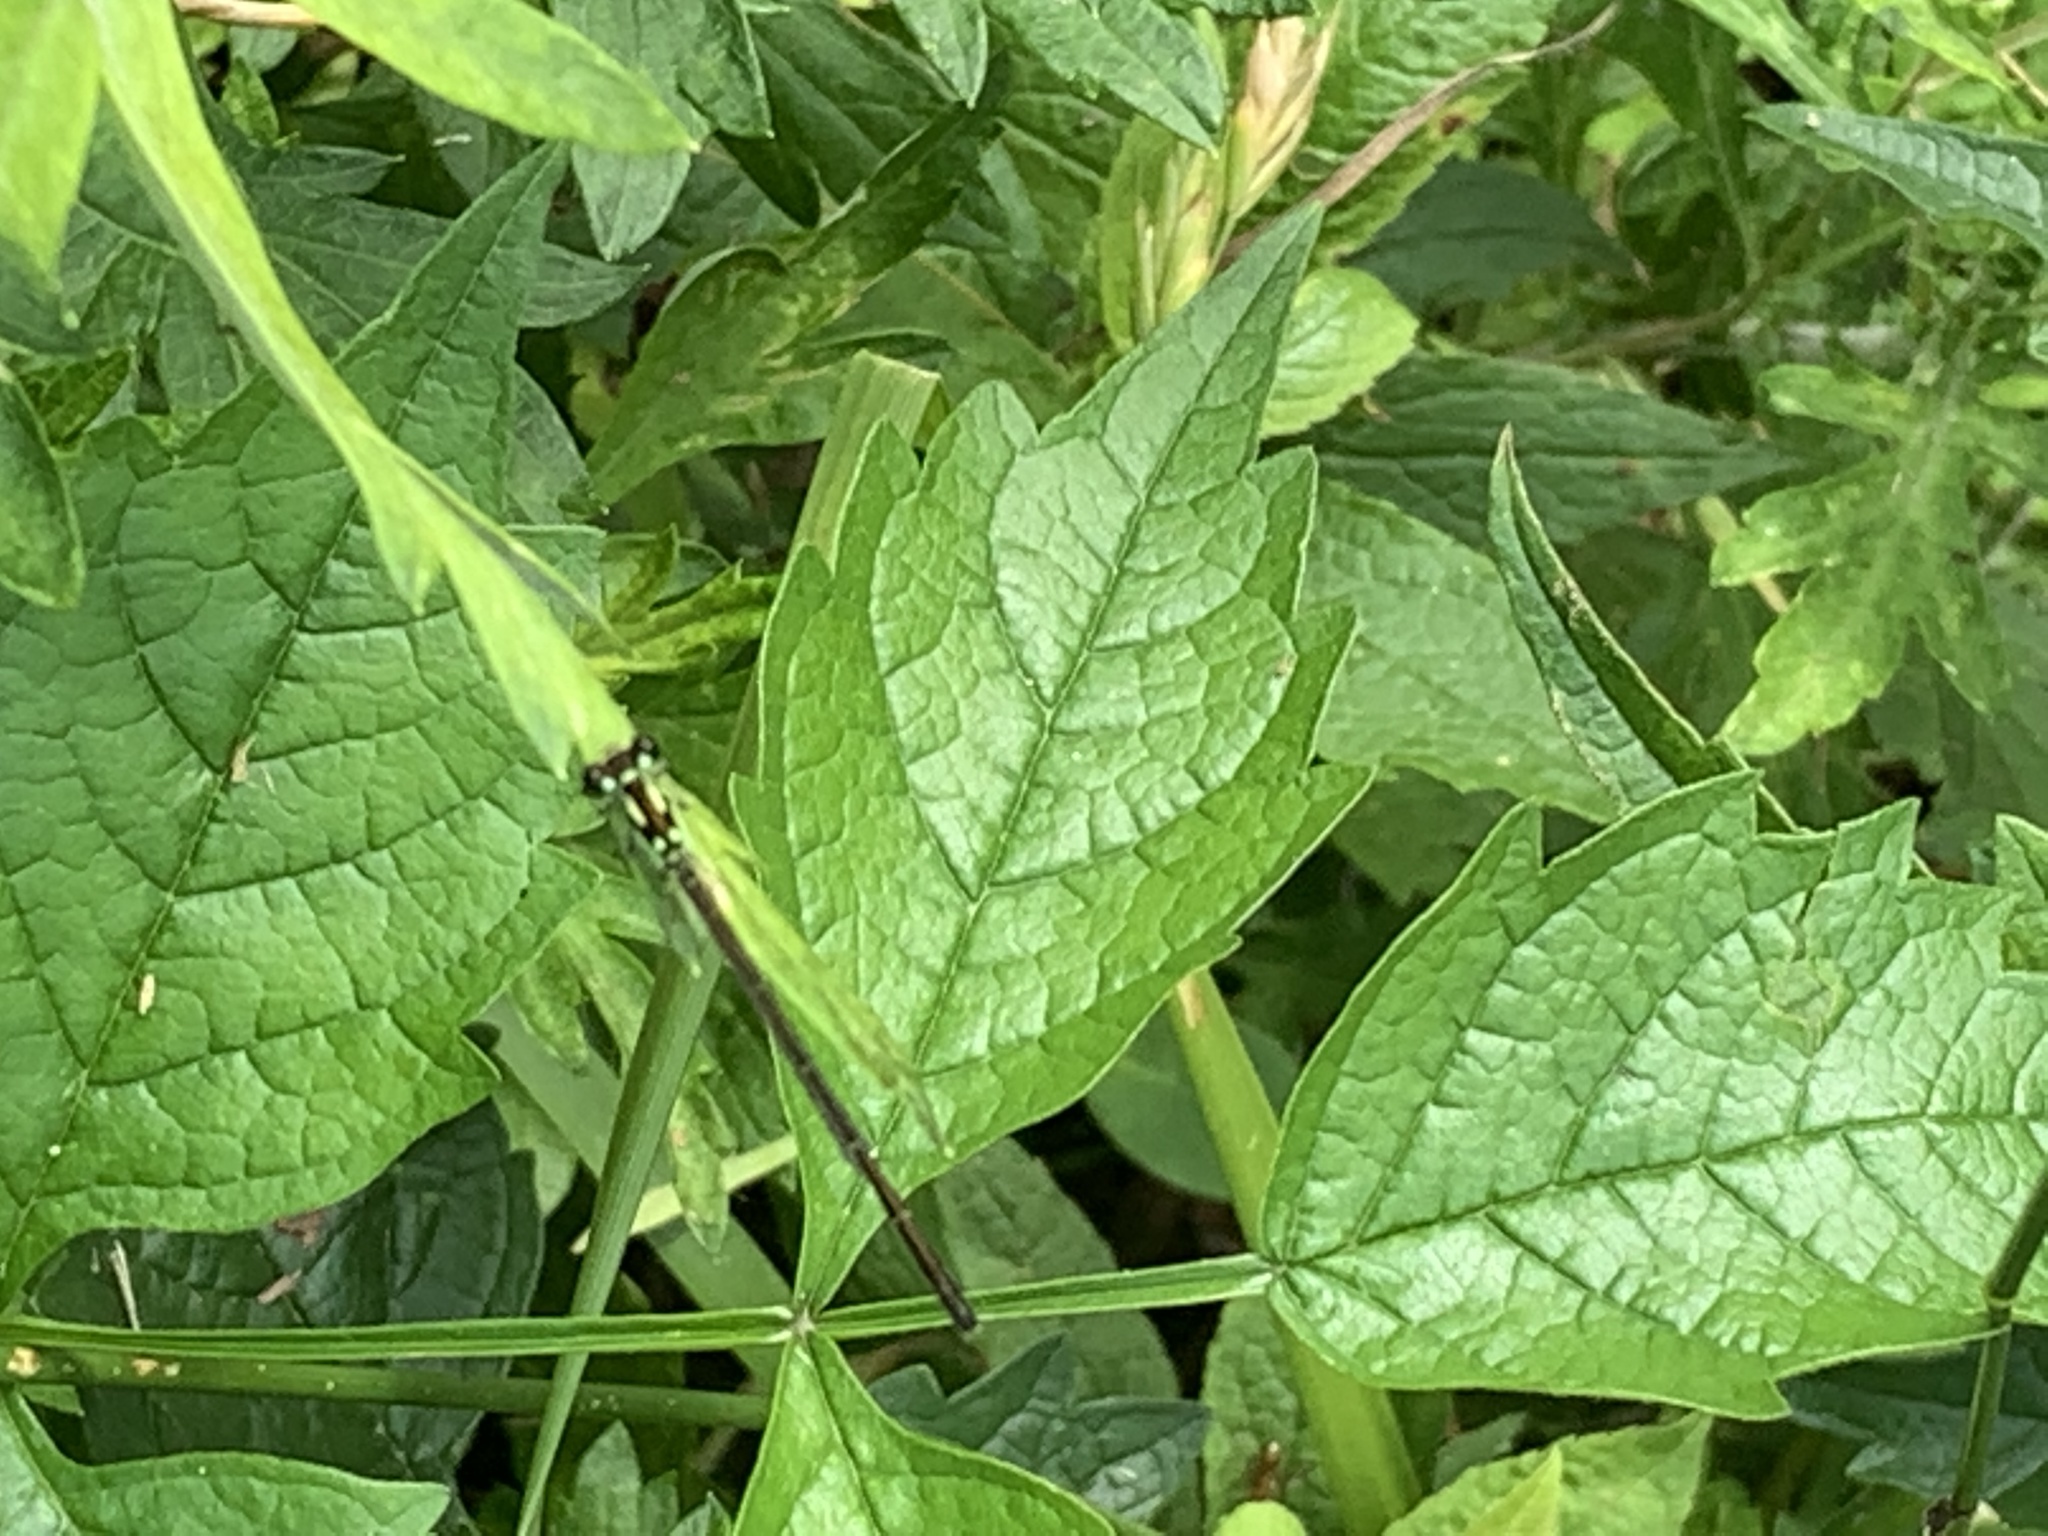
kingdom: Animalia
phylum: Arthropoda
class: Insecta
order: Odonata
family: Coenagrionidae
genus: Ischnura
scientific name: Ischnura posita
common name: Fragile forktail
